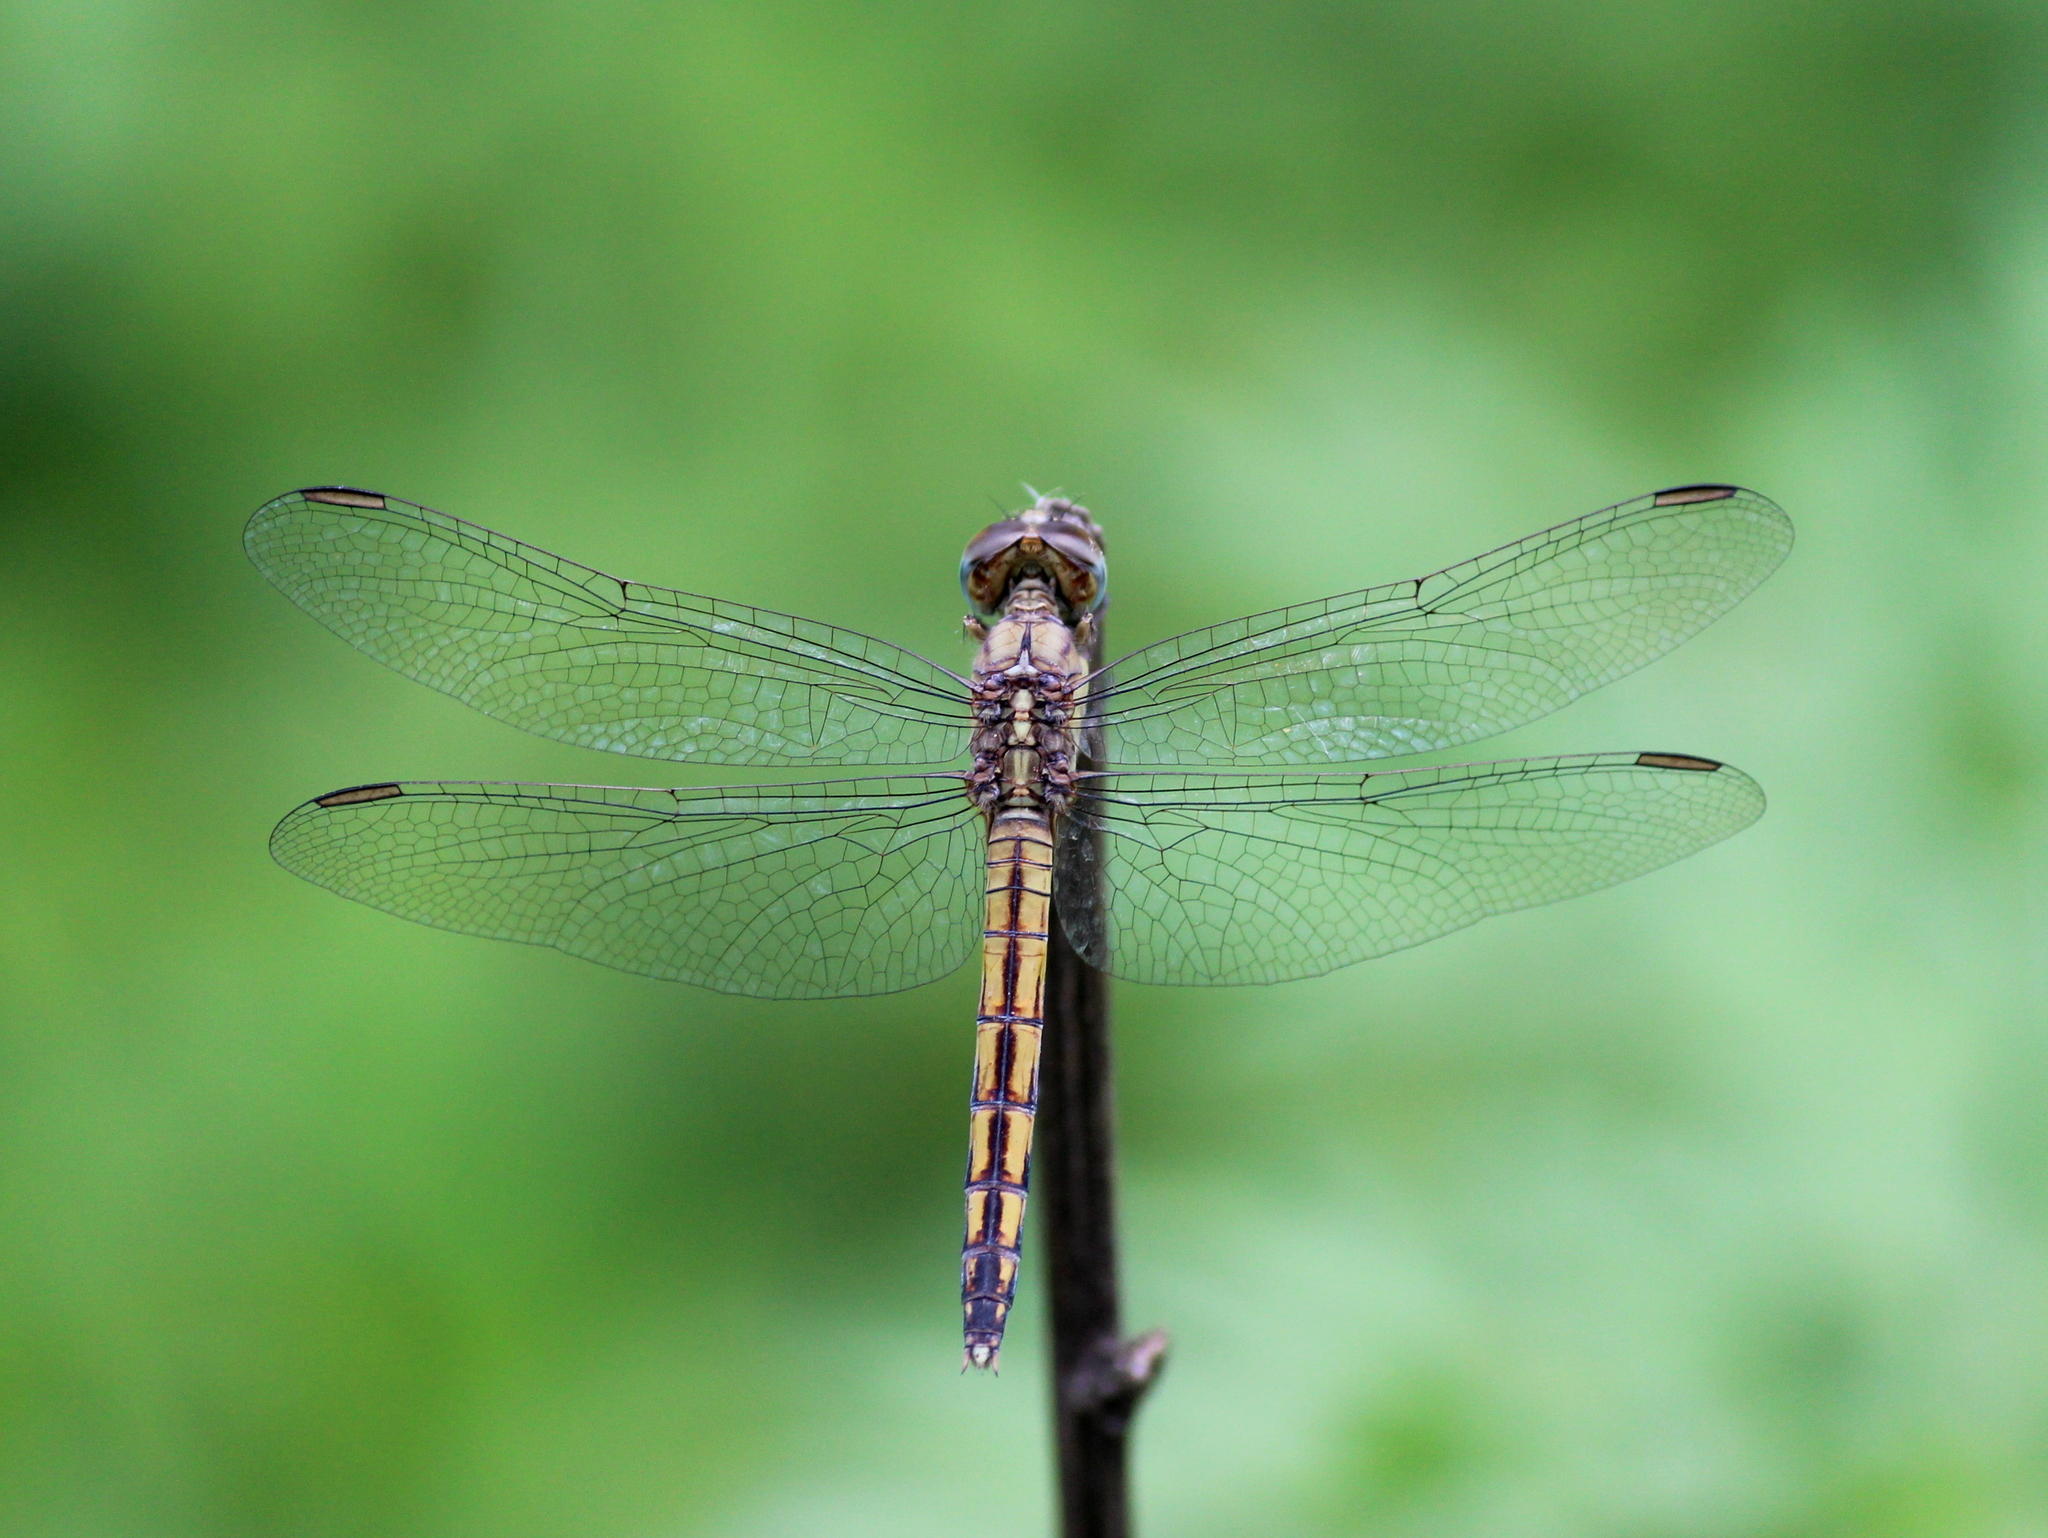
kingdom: Animalia
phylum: Arthropoda
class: Insecta
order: Odonata
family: Libellulidae
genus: Trithemis
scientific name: Trithemis aurora
